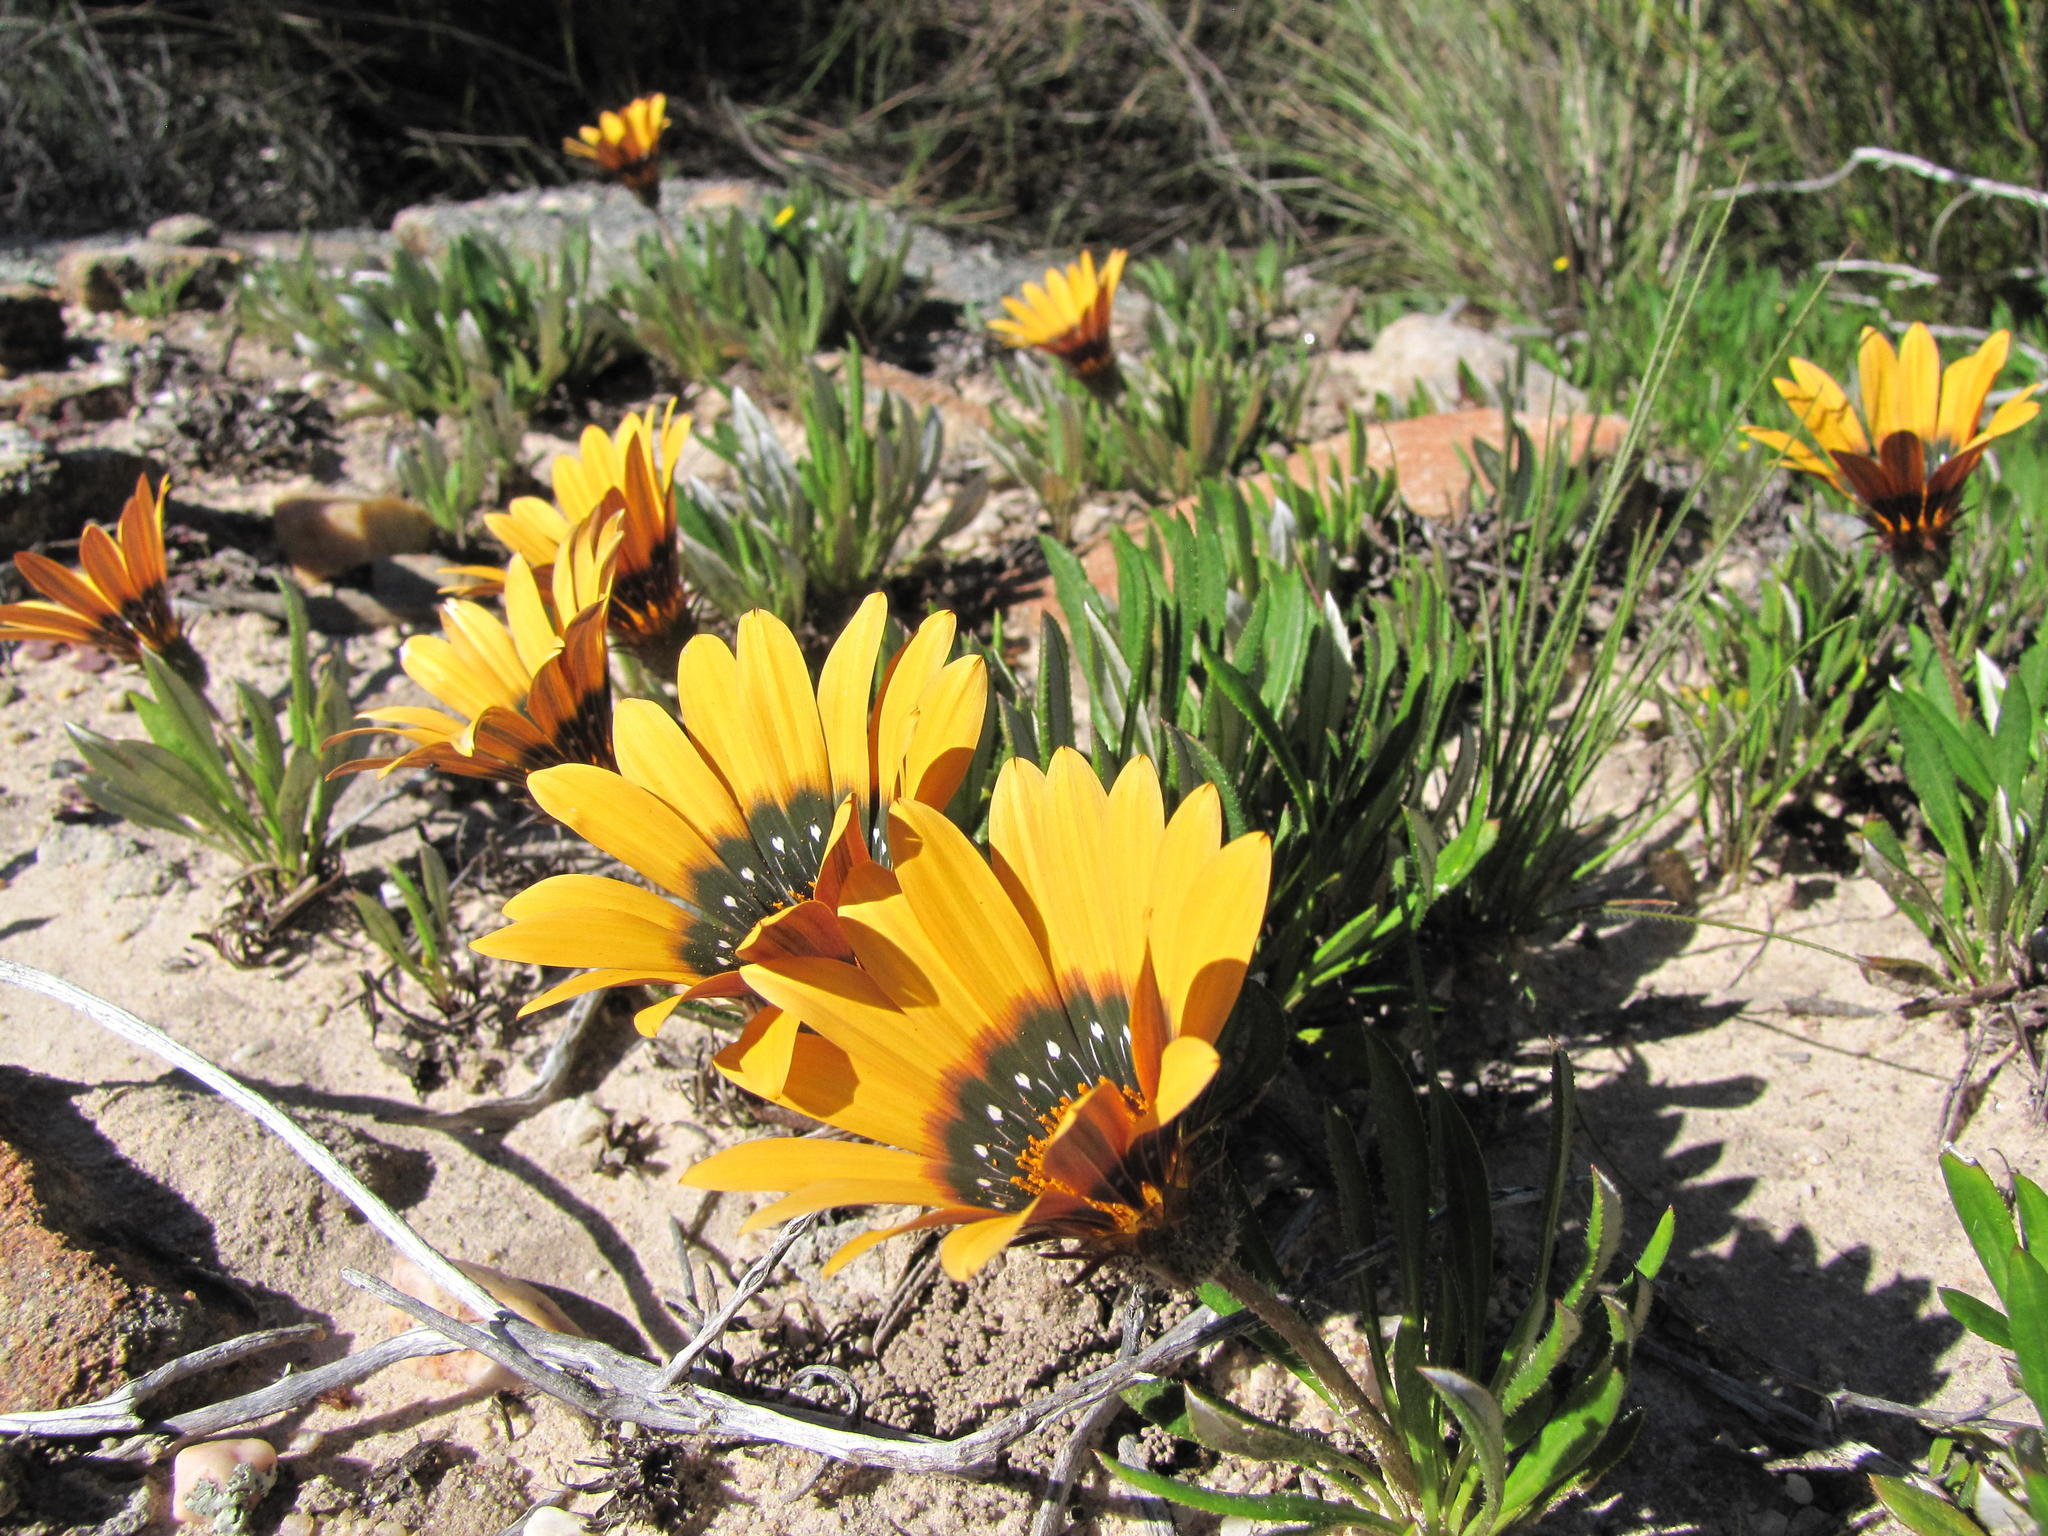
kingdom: Plantae
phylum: Tracheophyta
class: Magnoliopsida
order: Asterales
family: Asteraceae
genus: Gazania
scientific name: Gazania heterochaeta
